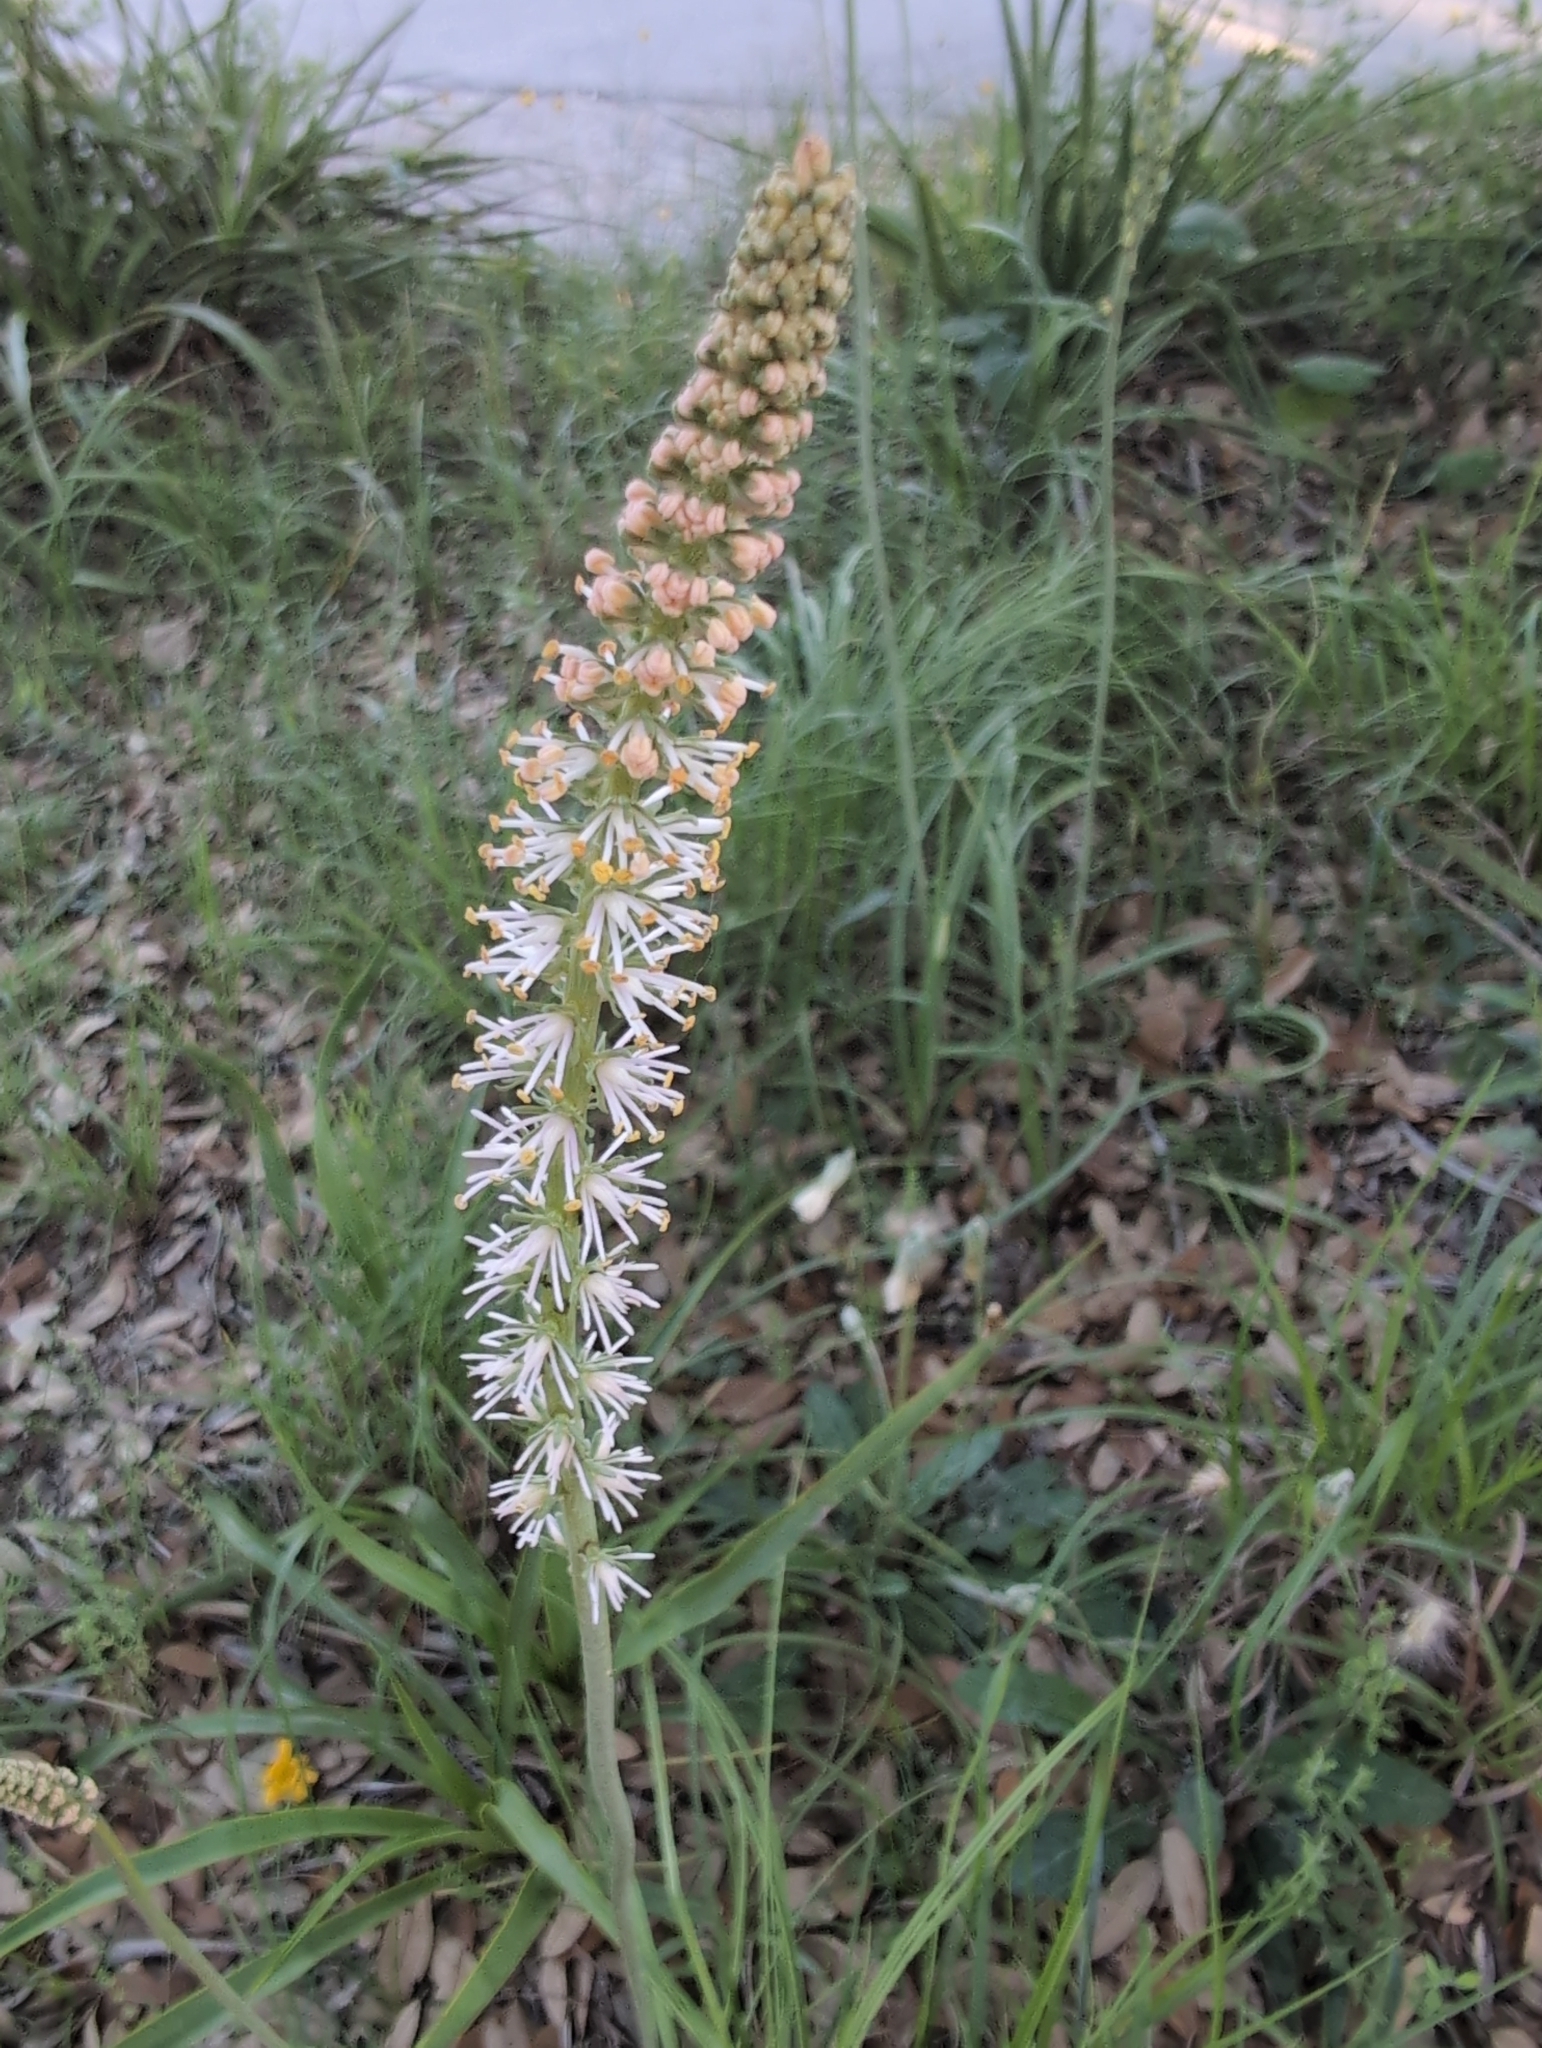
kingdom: Plantae
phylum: Tracheophyta
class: Liliopsida
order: Liliales
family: Melanthiaceae
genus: Schoenocaulon
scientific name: Schoenocaulon texanum
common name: Texas feather-shank
